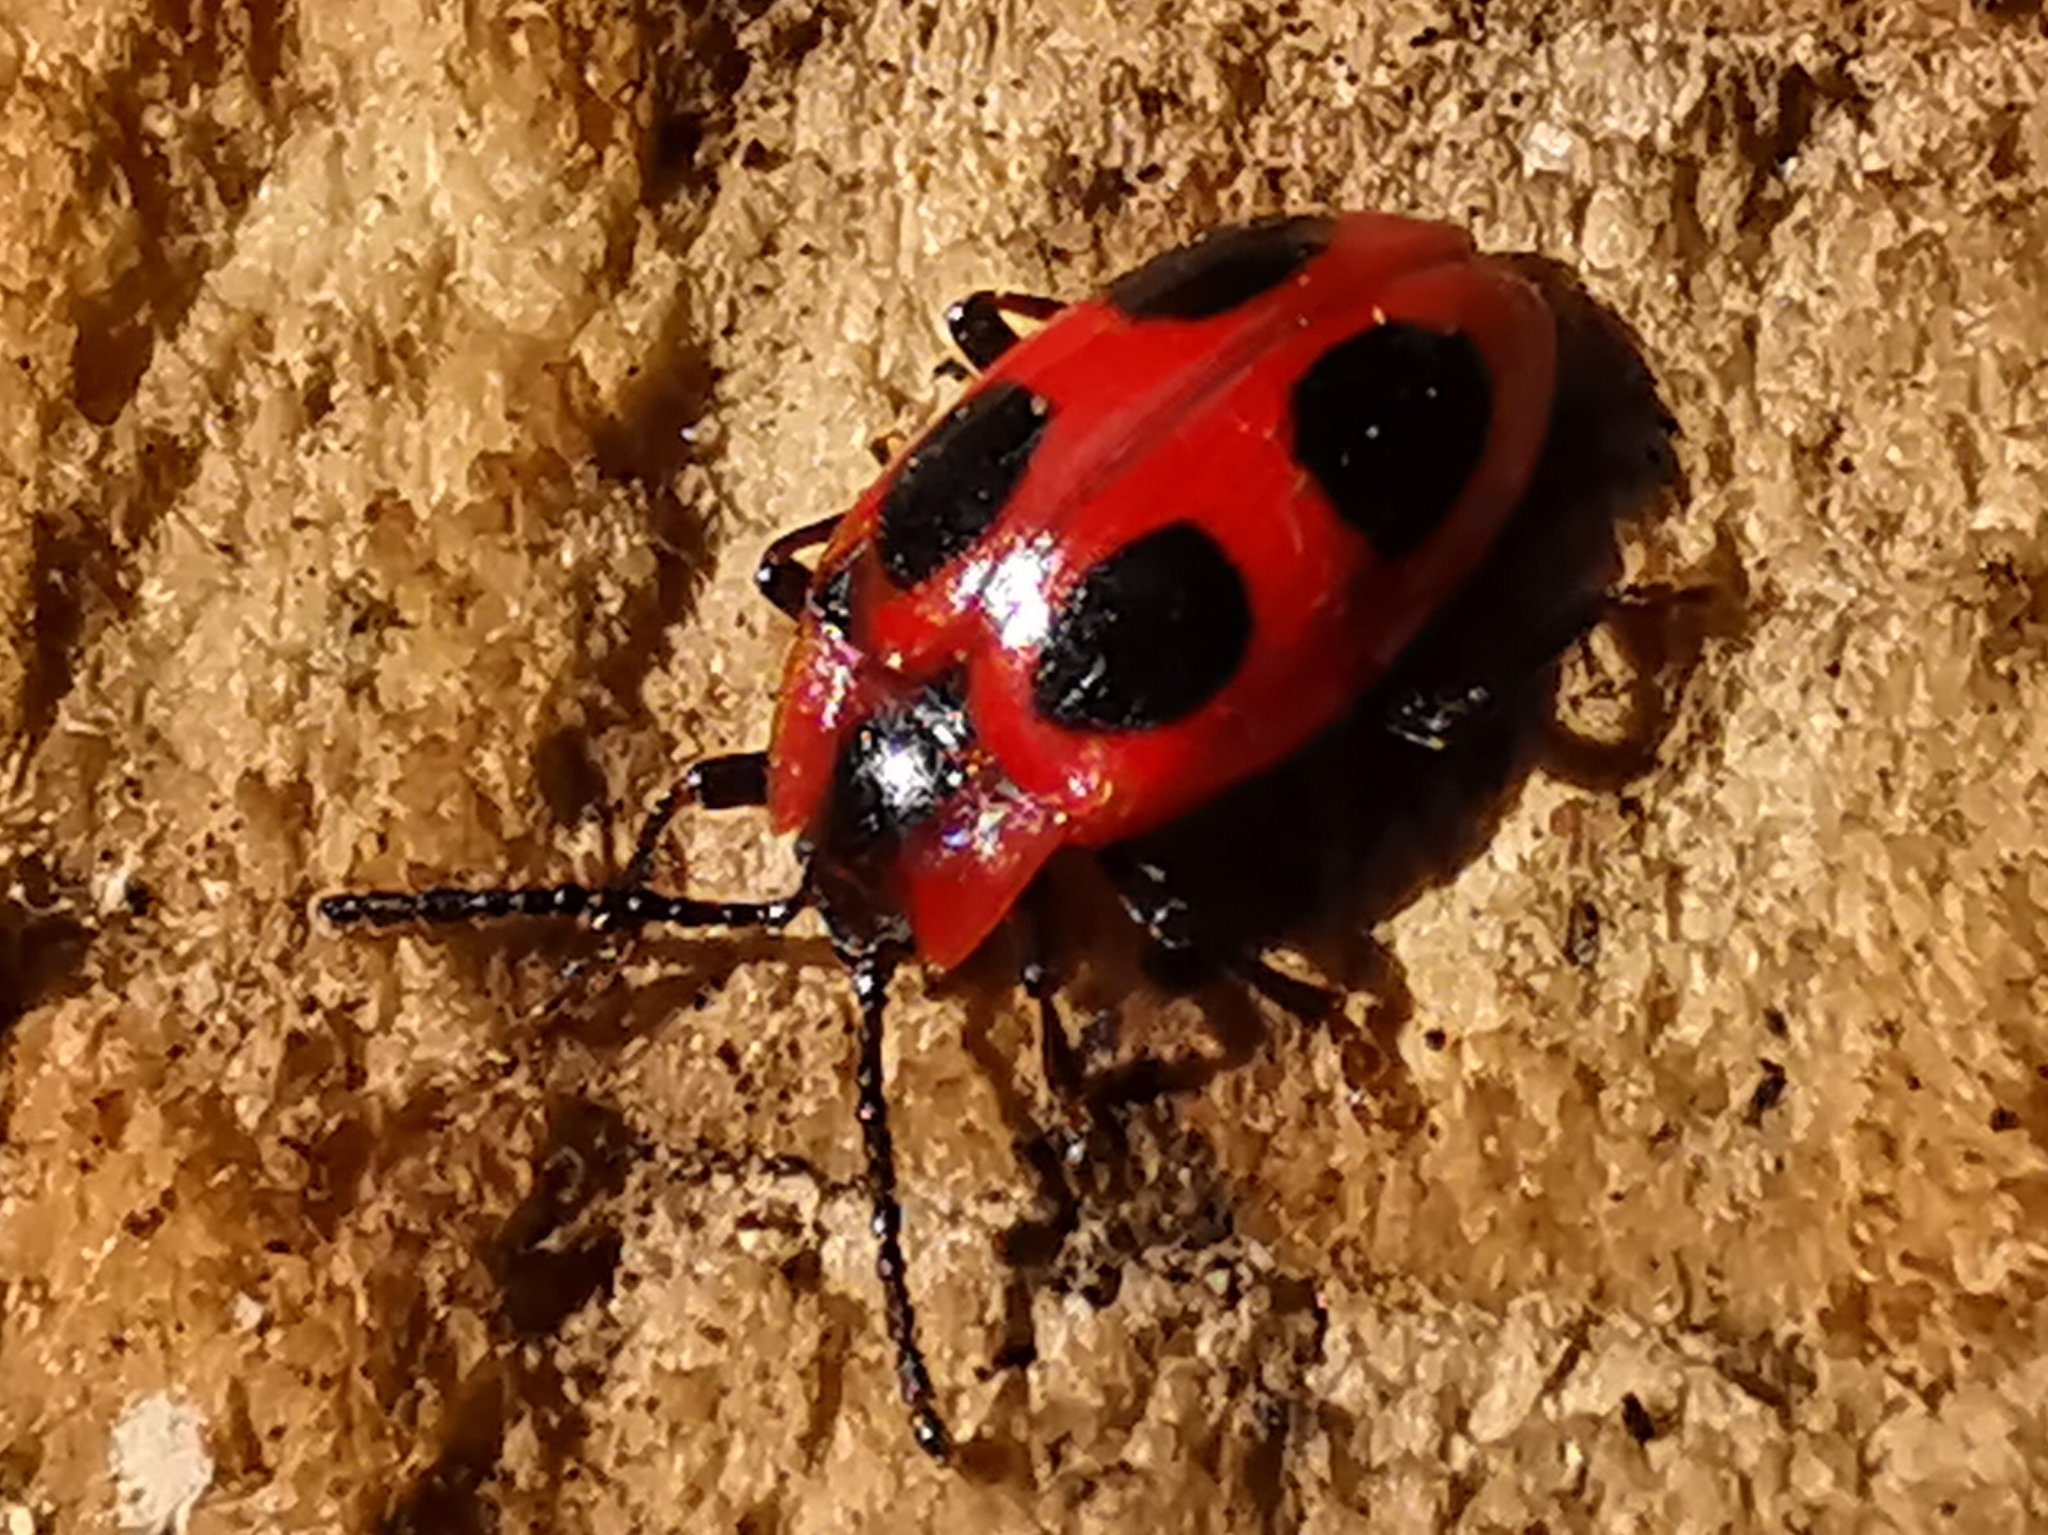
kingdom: Animalia
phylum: Arthropoda
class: Insecta
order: Coleoptera
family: Endomychidae
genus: Endomychus
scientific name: Endomychus coccineus
